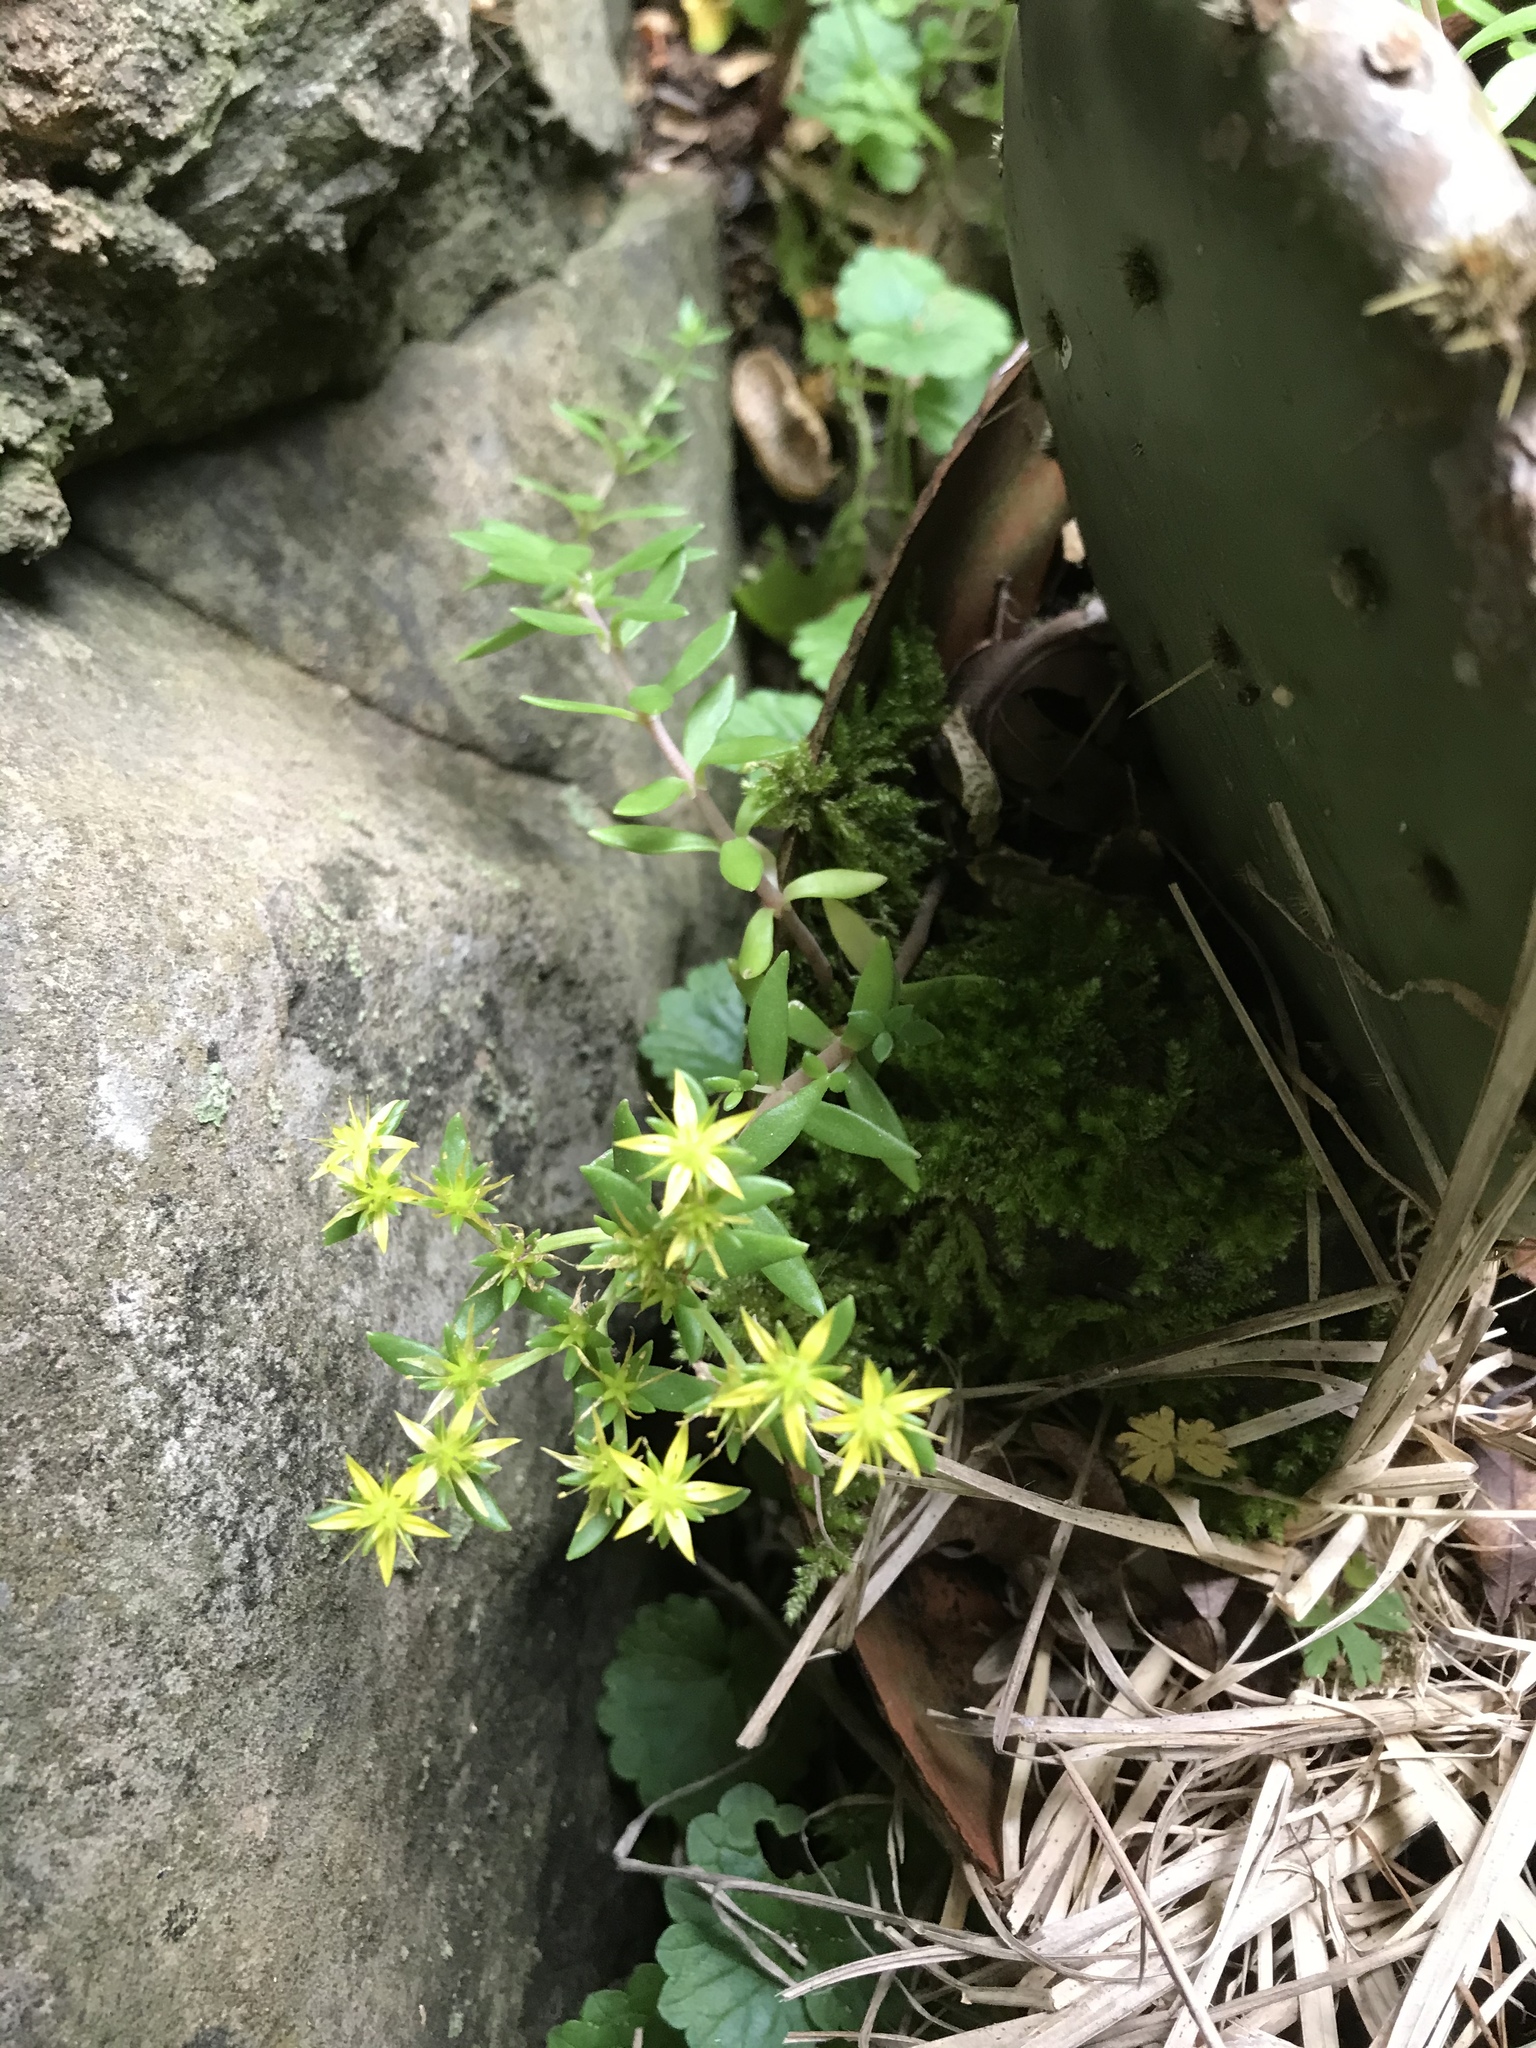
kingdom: Plantae
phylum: Tracheophyta
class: Magnoliopsida
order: Saxifragales
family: Crassulaceae
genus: Sedum
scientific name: Sedum sarmentosum
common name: Stringy stonecrop
